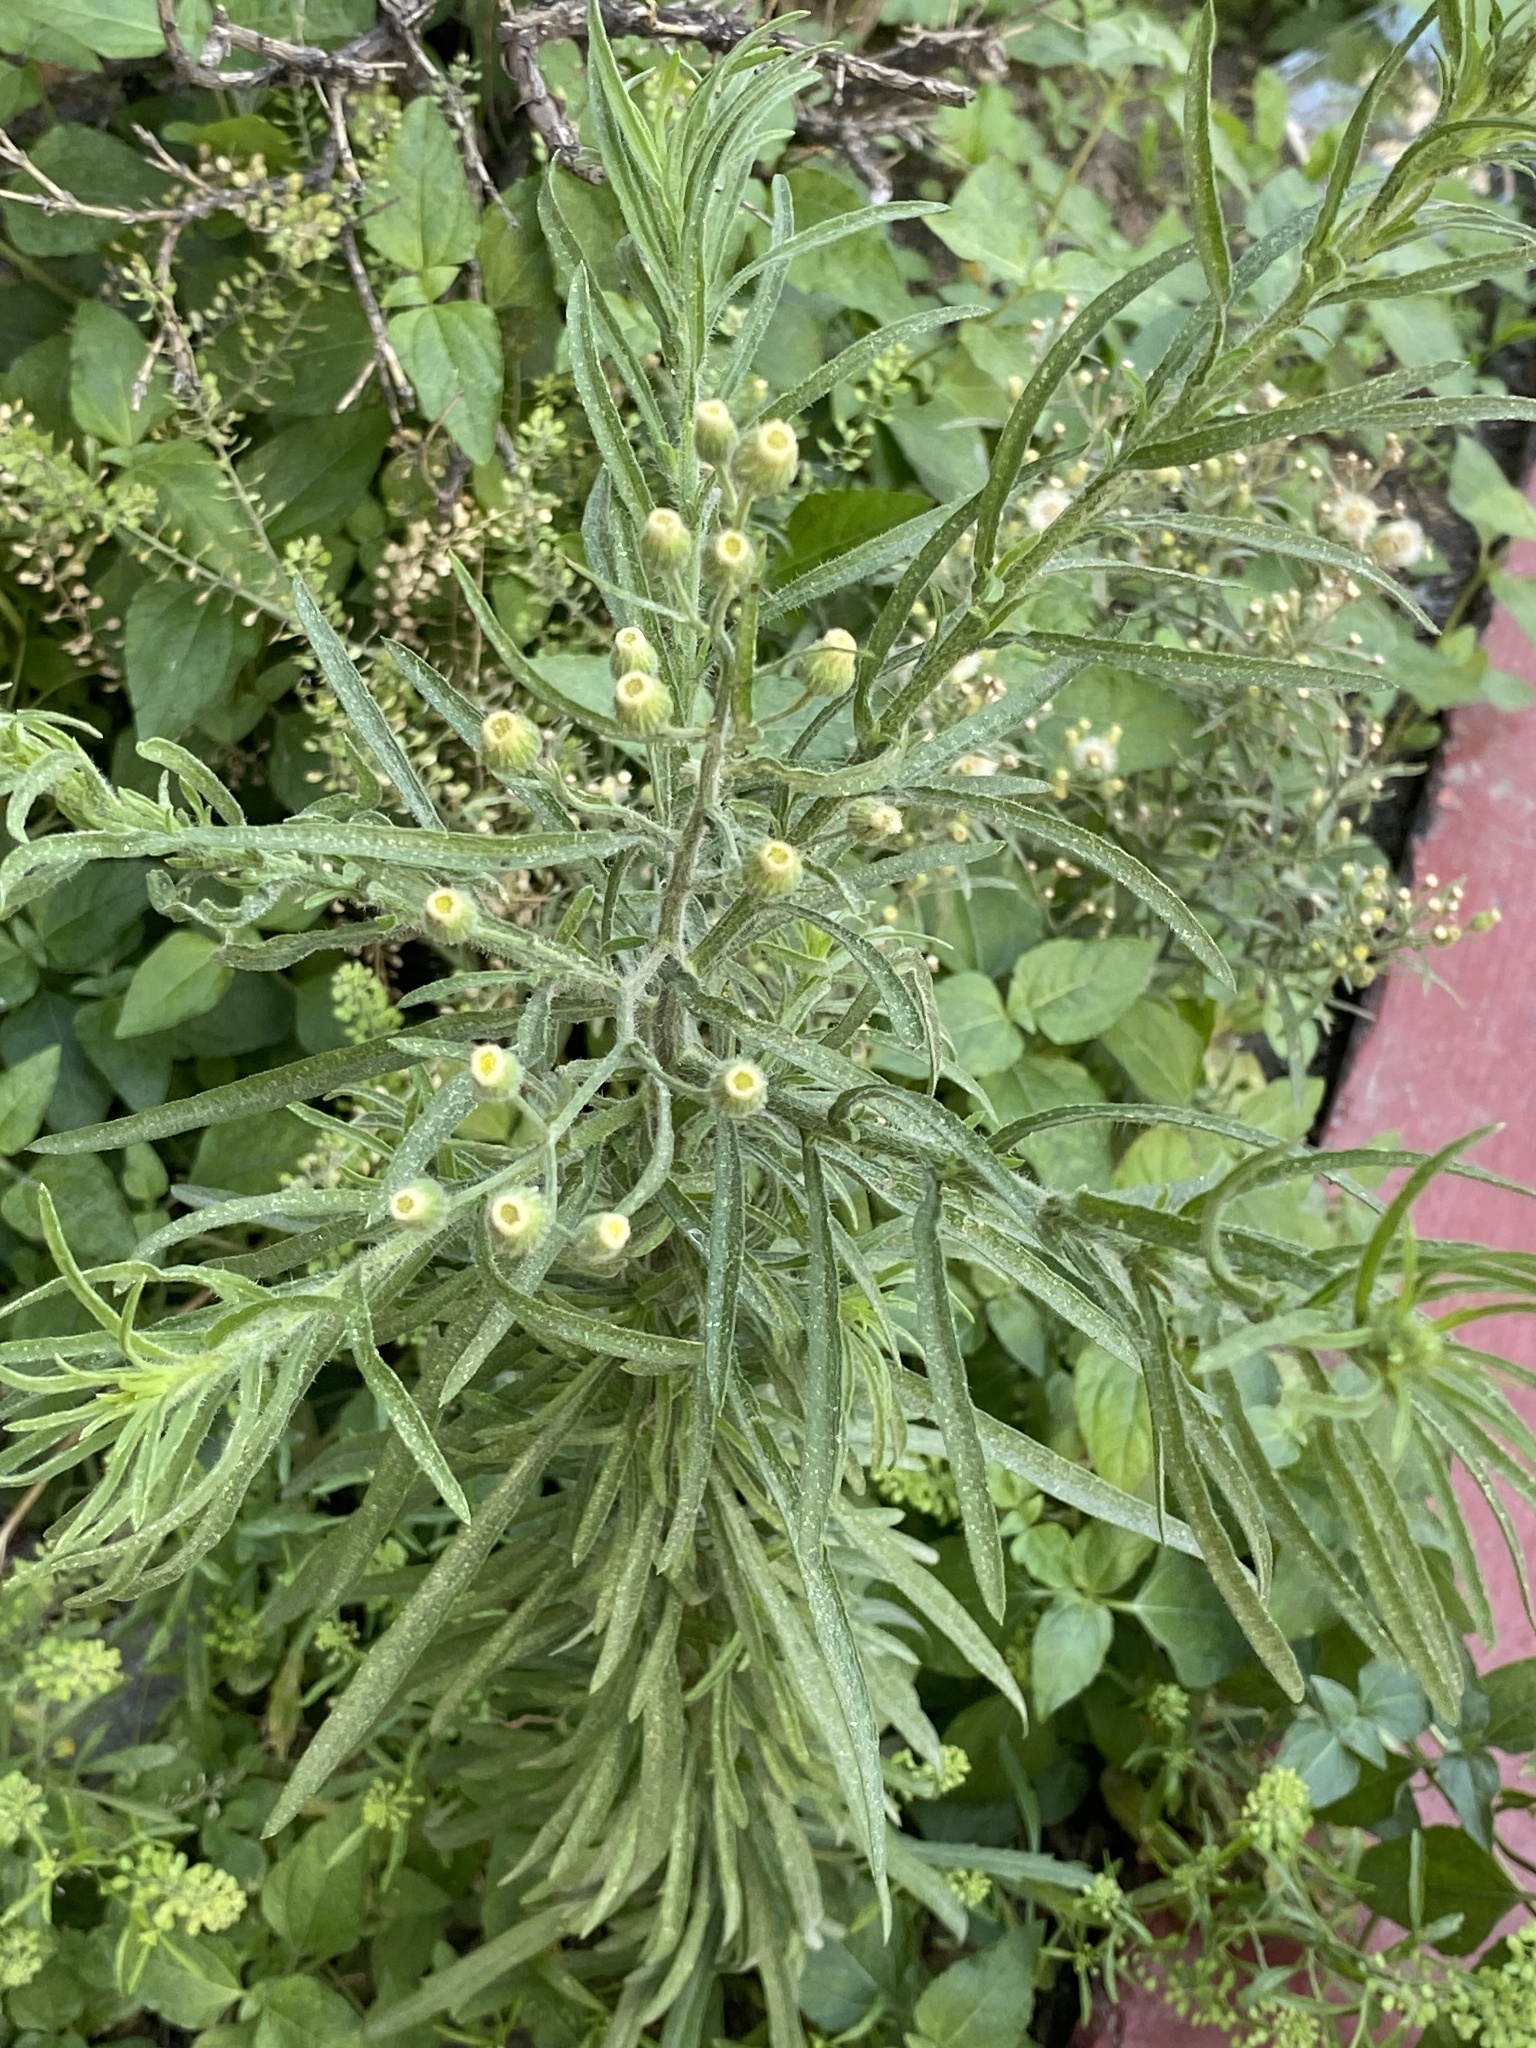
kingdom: Plantae
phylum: Tracheophyta
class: Magnoliopsida
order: Asterales
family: Asteraceae
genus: Erigeron
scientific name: Erigeron bonariensis
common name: Argentine fleabane
